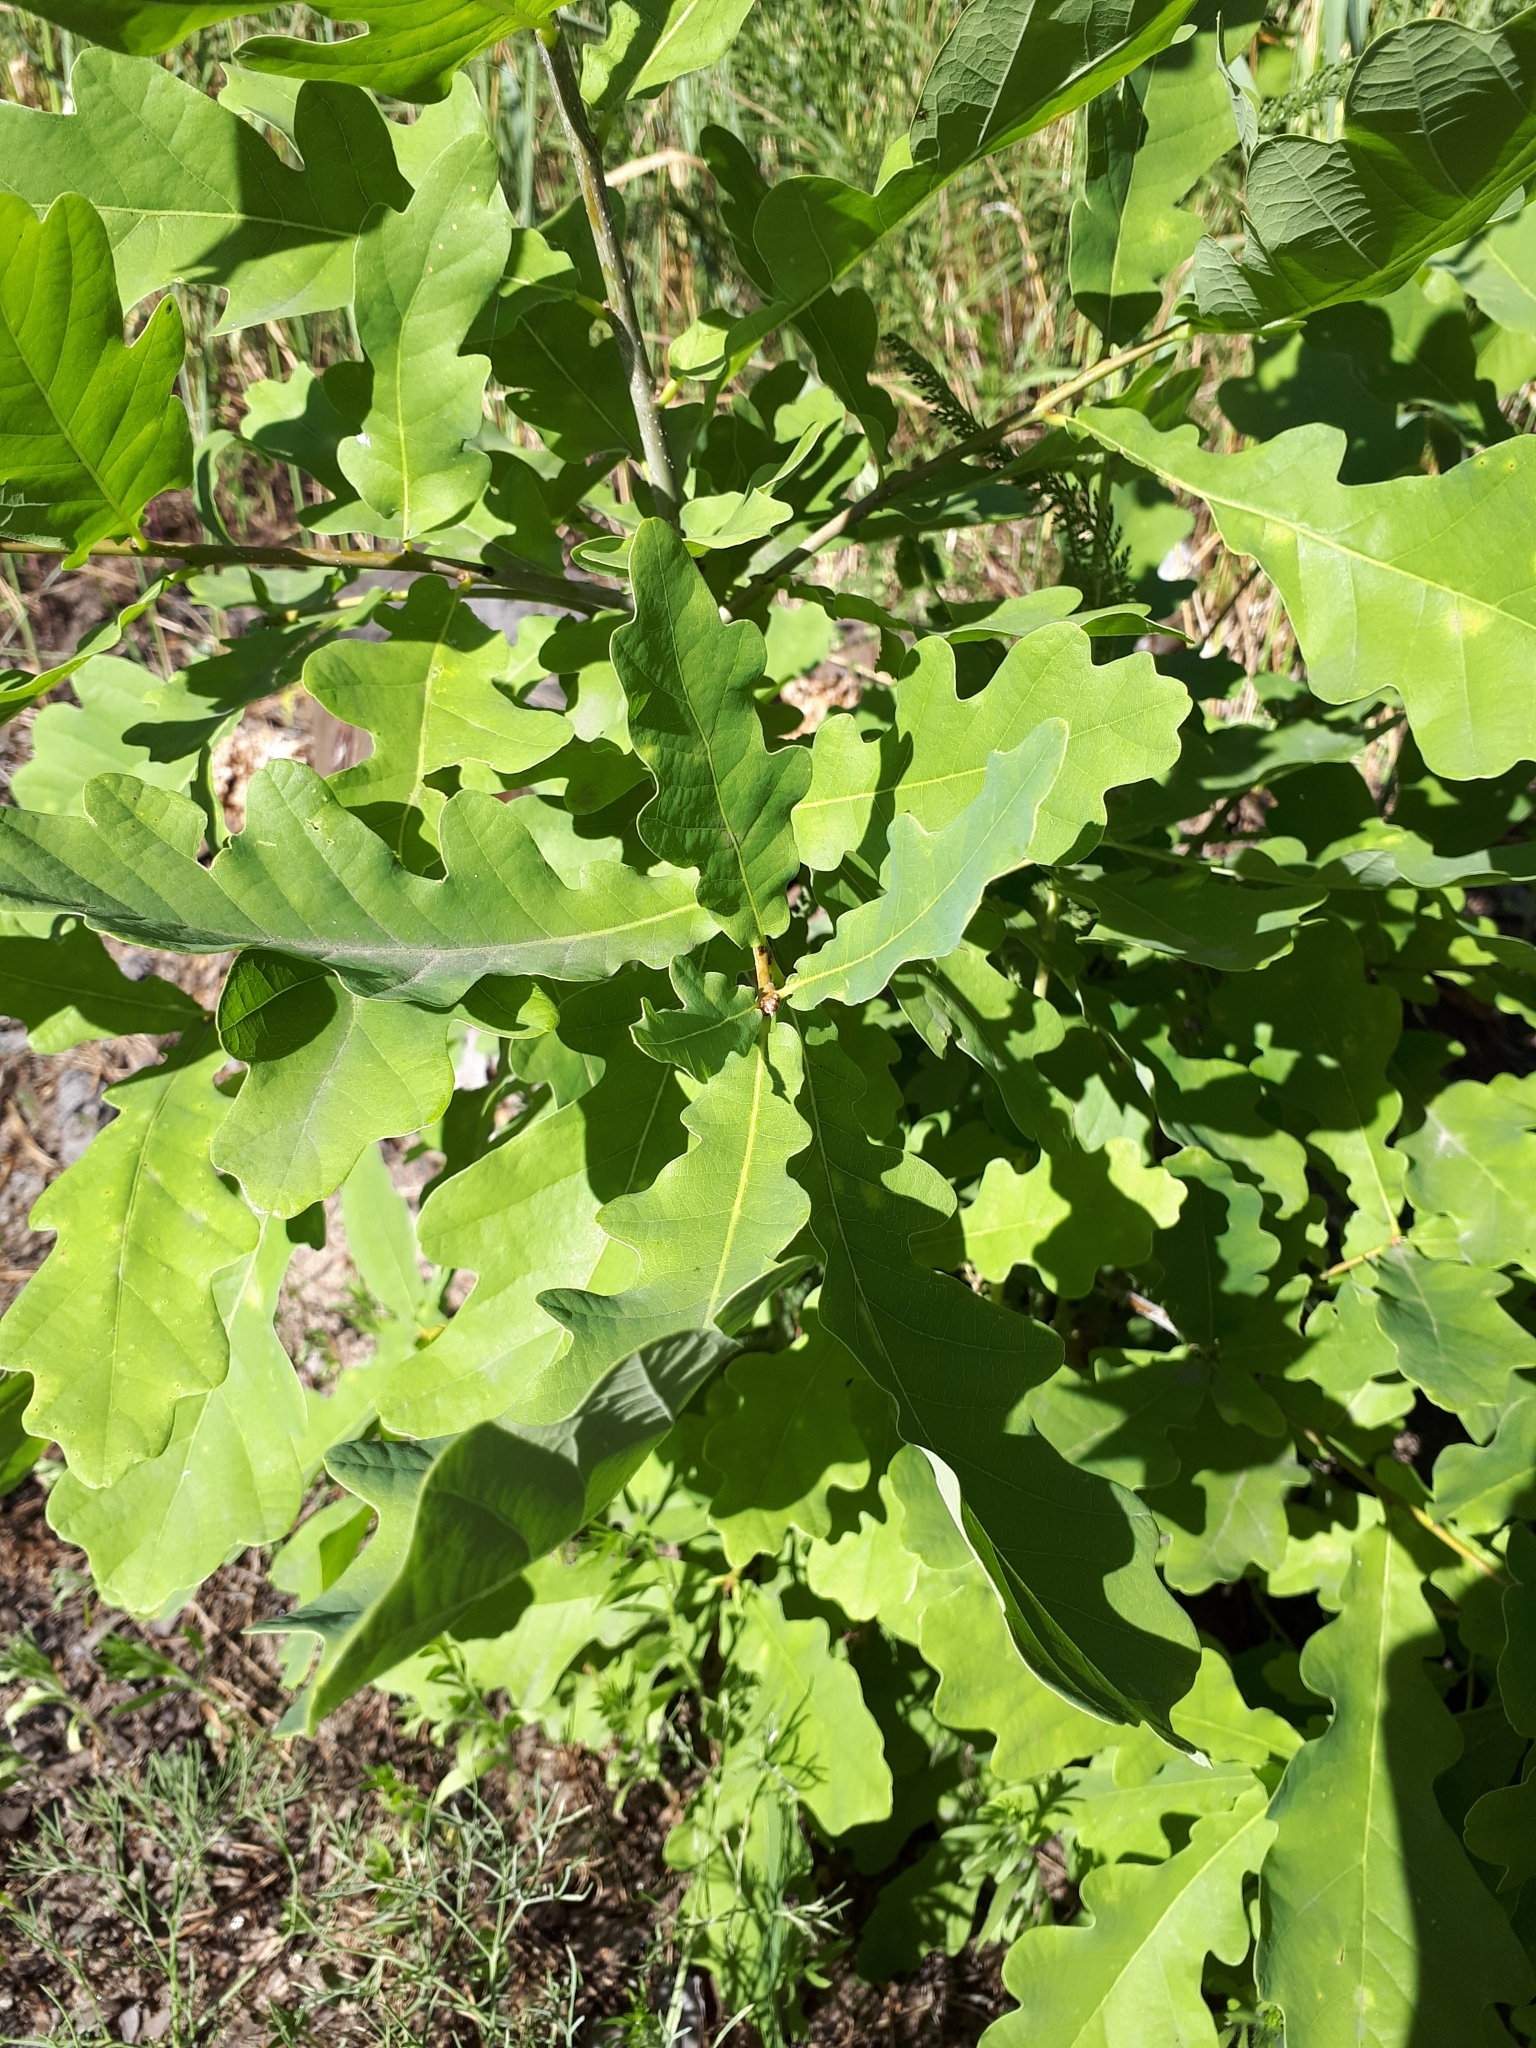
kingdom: Plantae
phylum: Tracheophyta
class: Magnoliopsida
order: Fagales
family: Fagaceae
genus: Quercus
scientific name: Quercus robur
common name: Pedunculate oak
